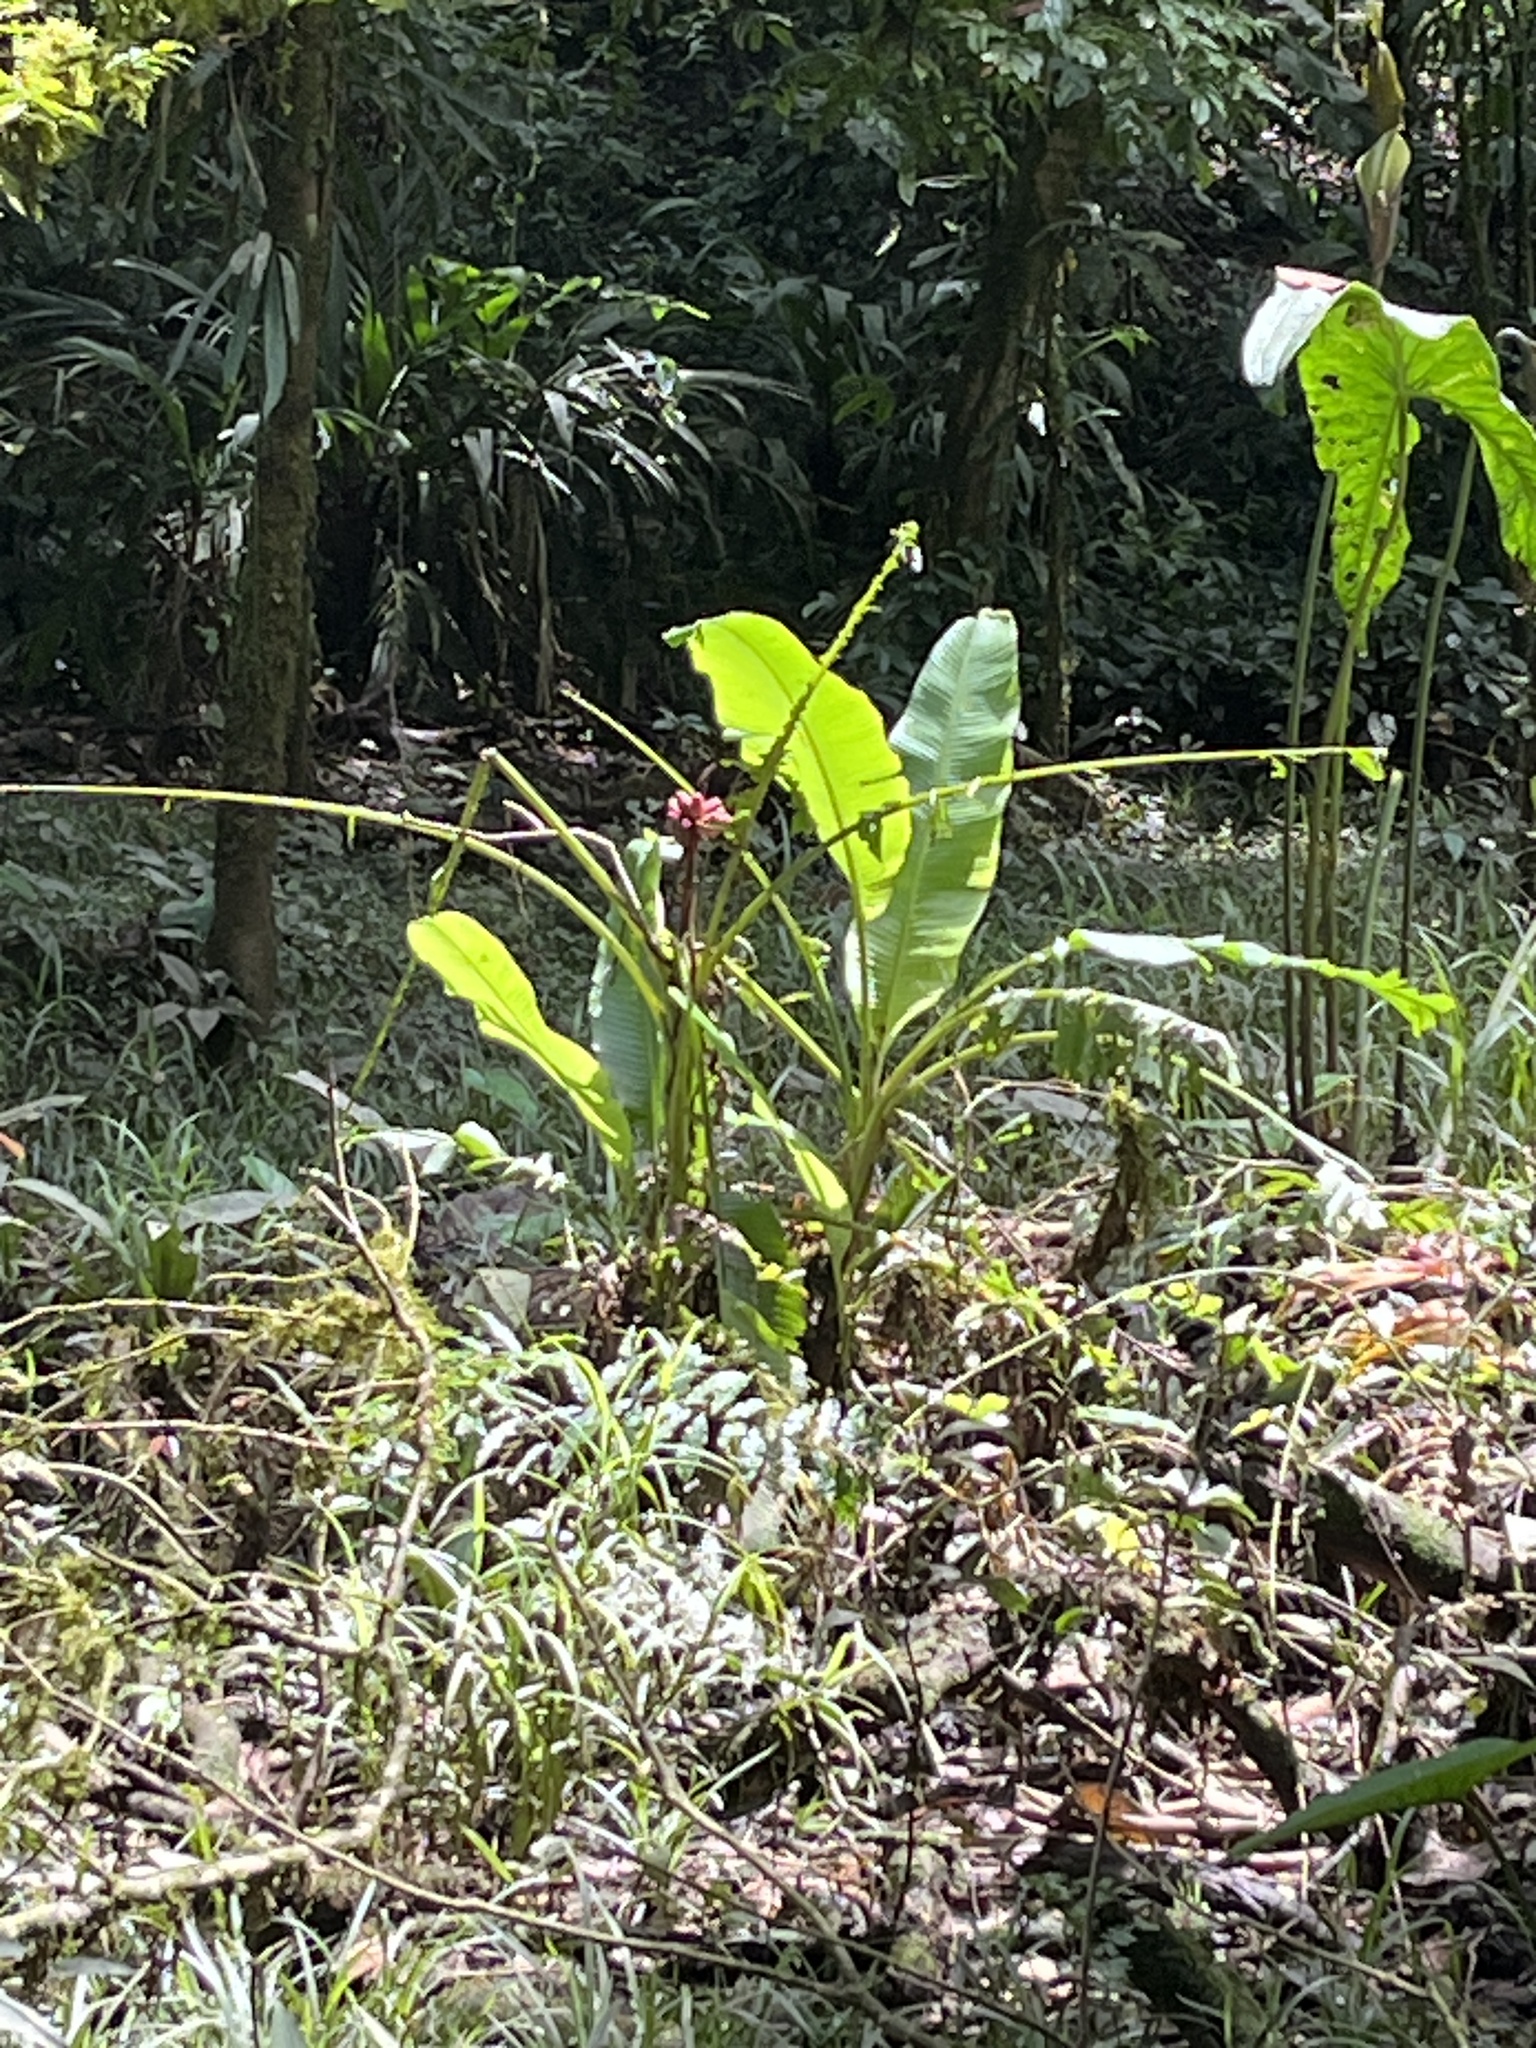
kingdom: Plantae
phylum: Tracheophyta
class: Liliopsida
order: Zingiberales
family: Musaceae
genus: Musa
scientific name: Musa velutina
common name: Pink velvet banana
